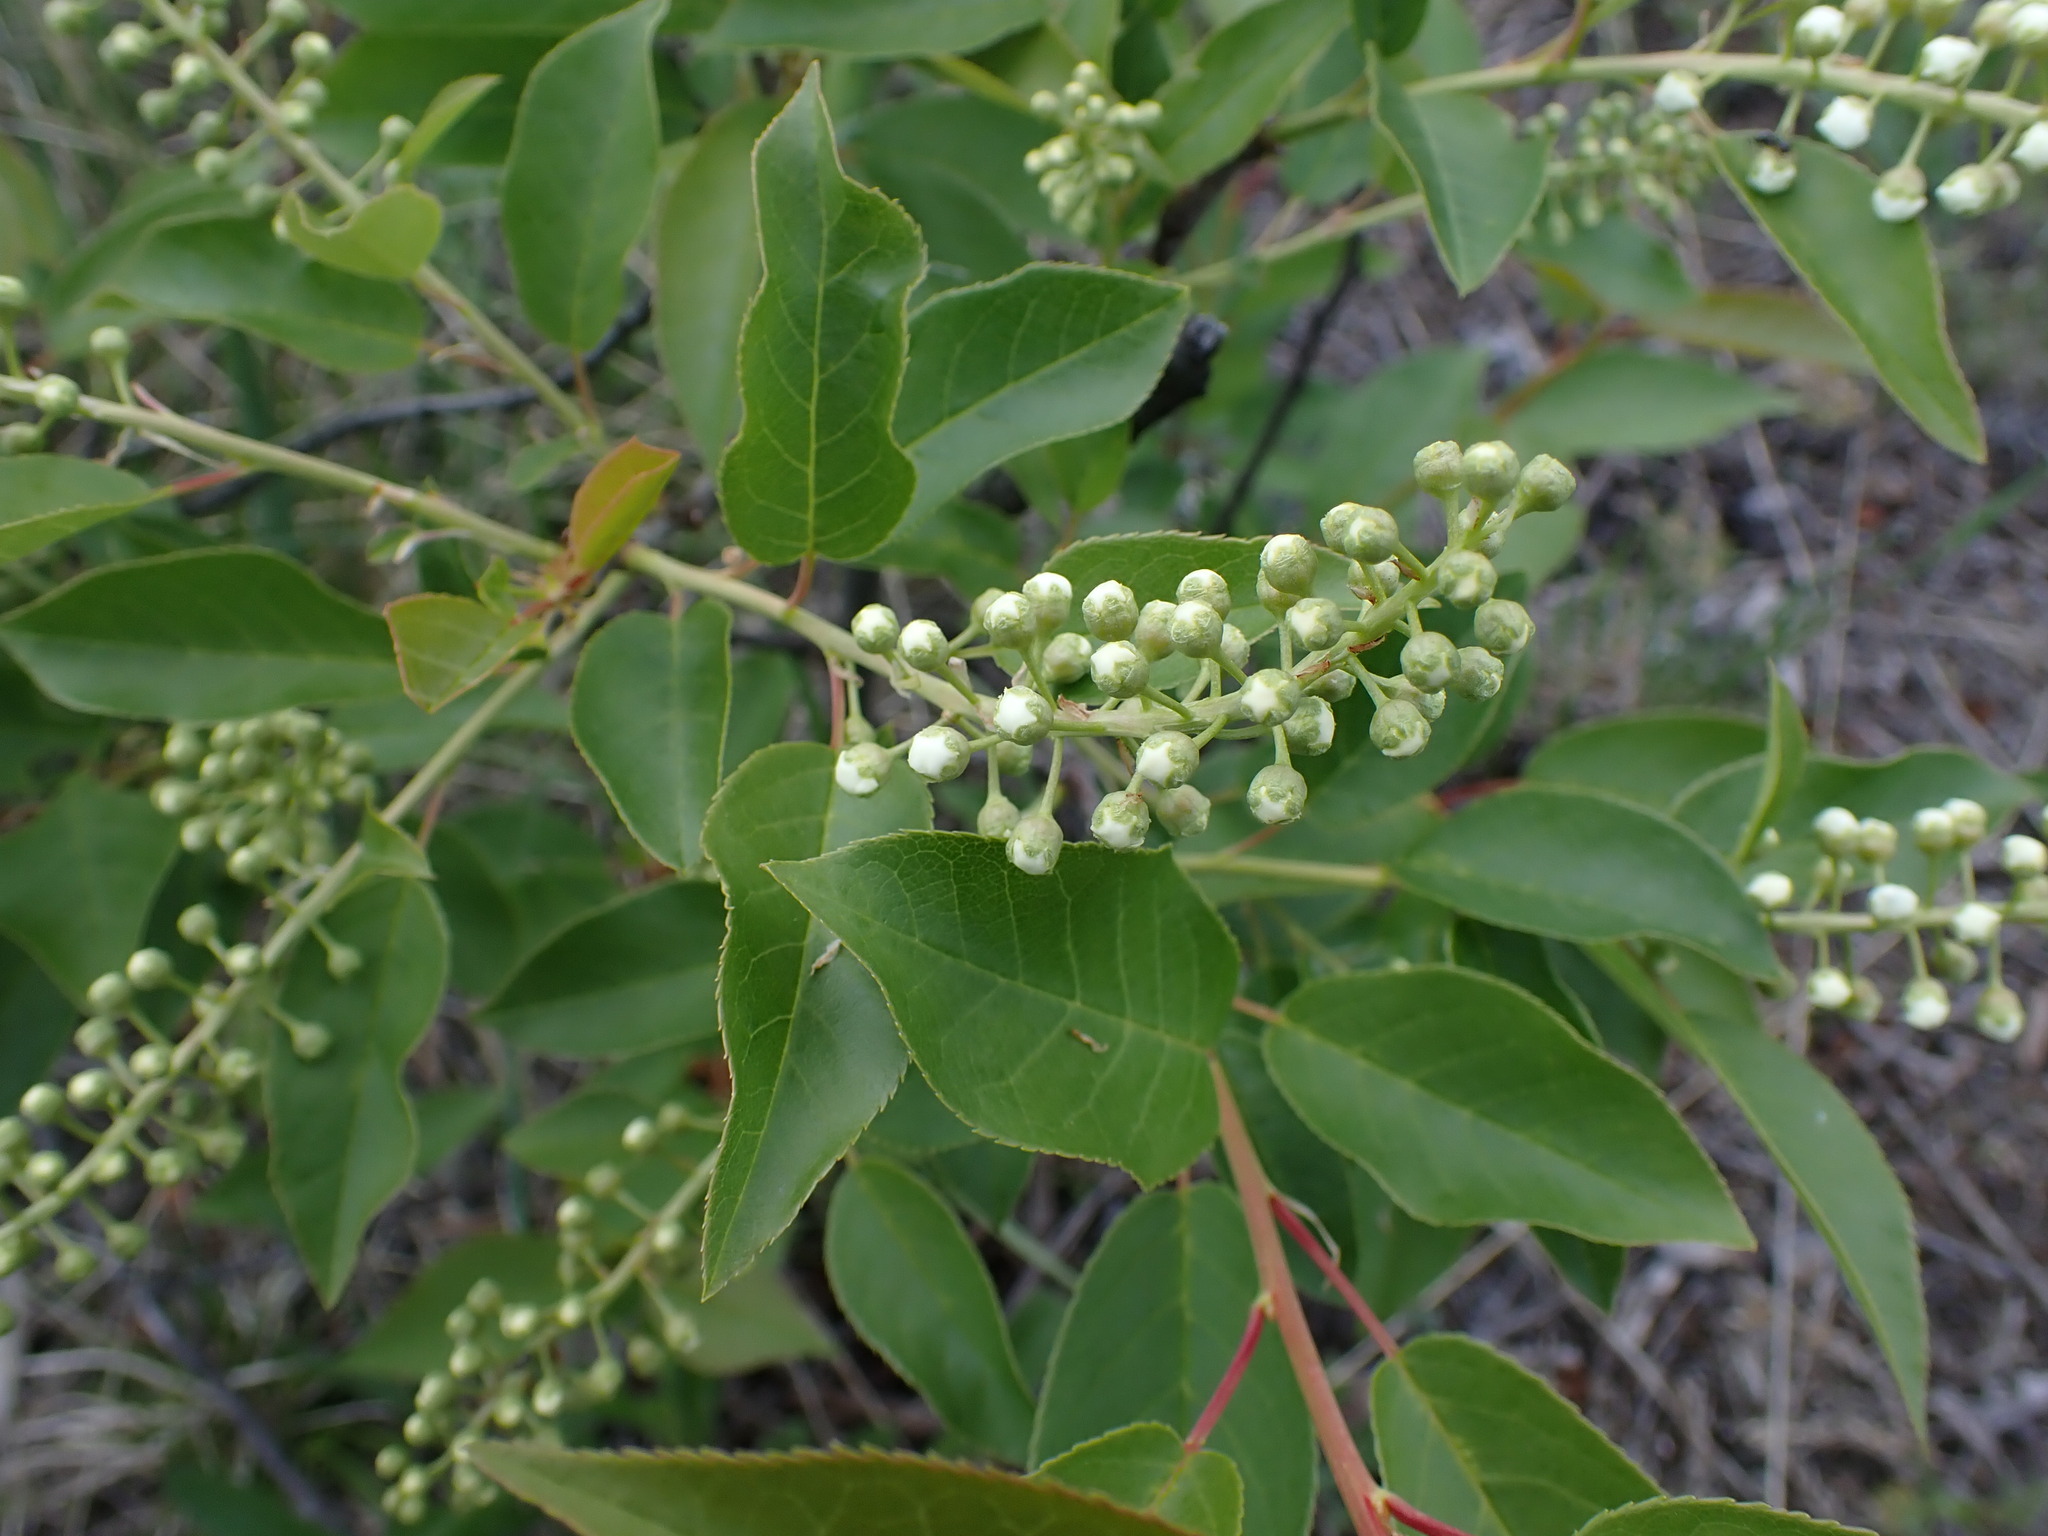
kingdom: Plantae
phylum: Tracheophyta
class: Magnoliopsida
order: Rosales
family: Rosaceae
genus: Prunus
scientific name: Prunus virginiana
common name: Chokecherry
